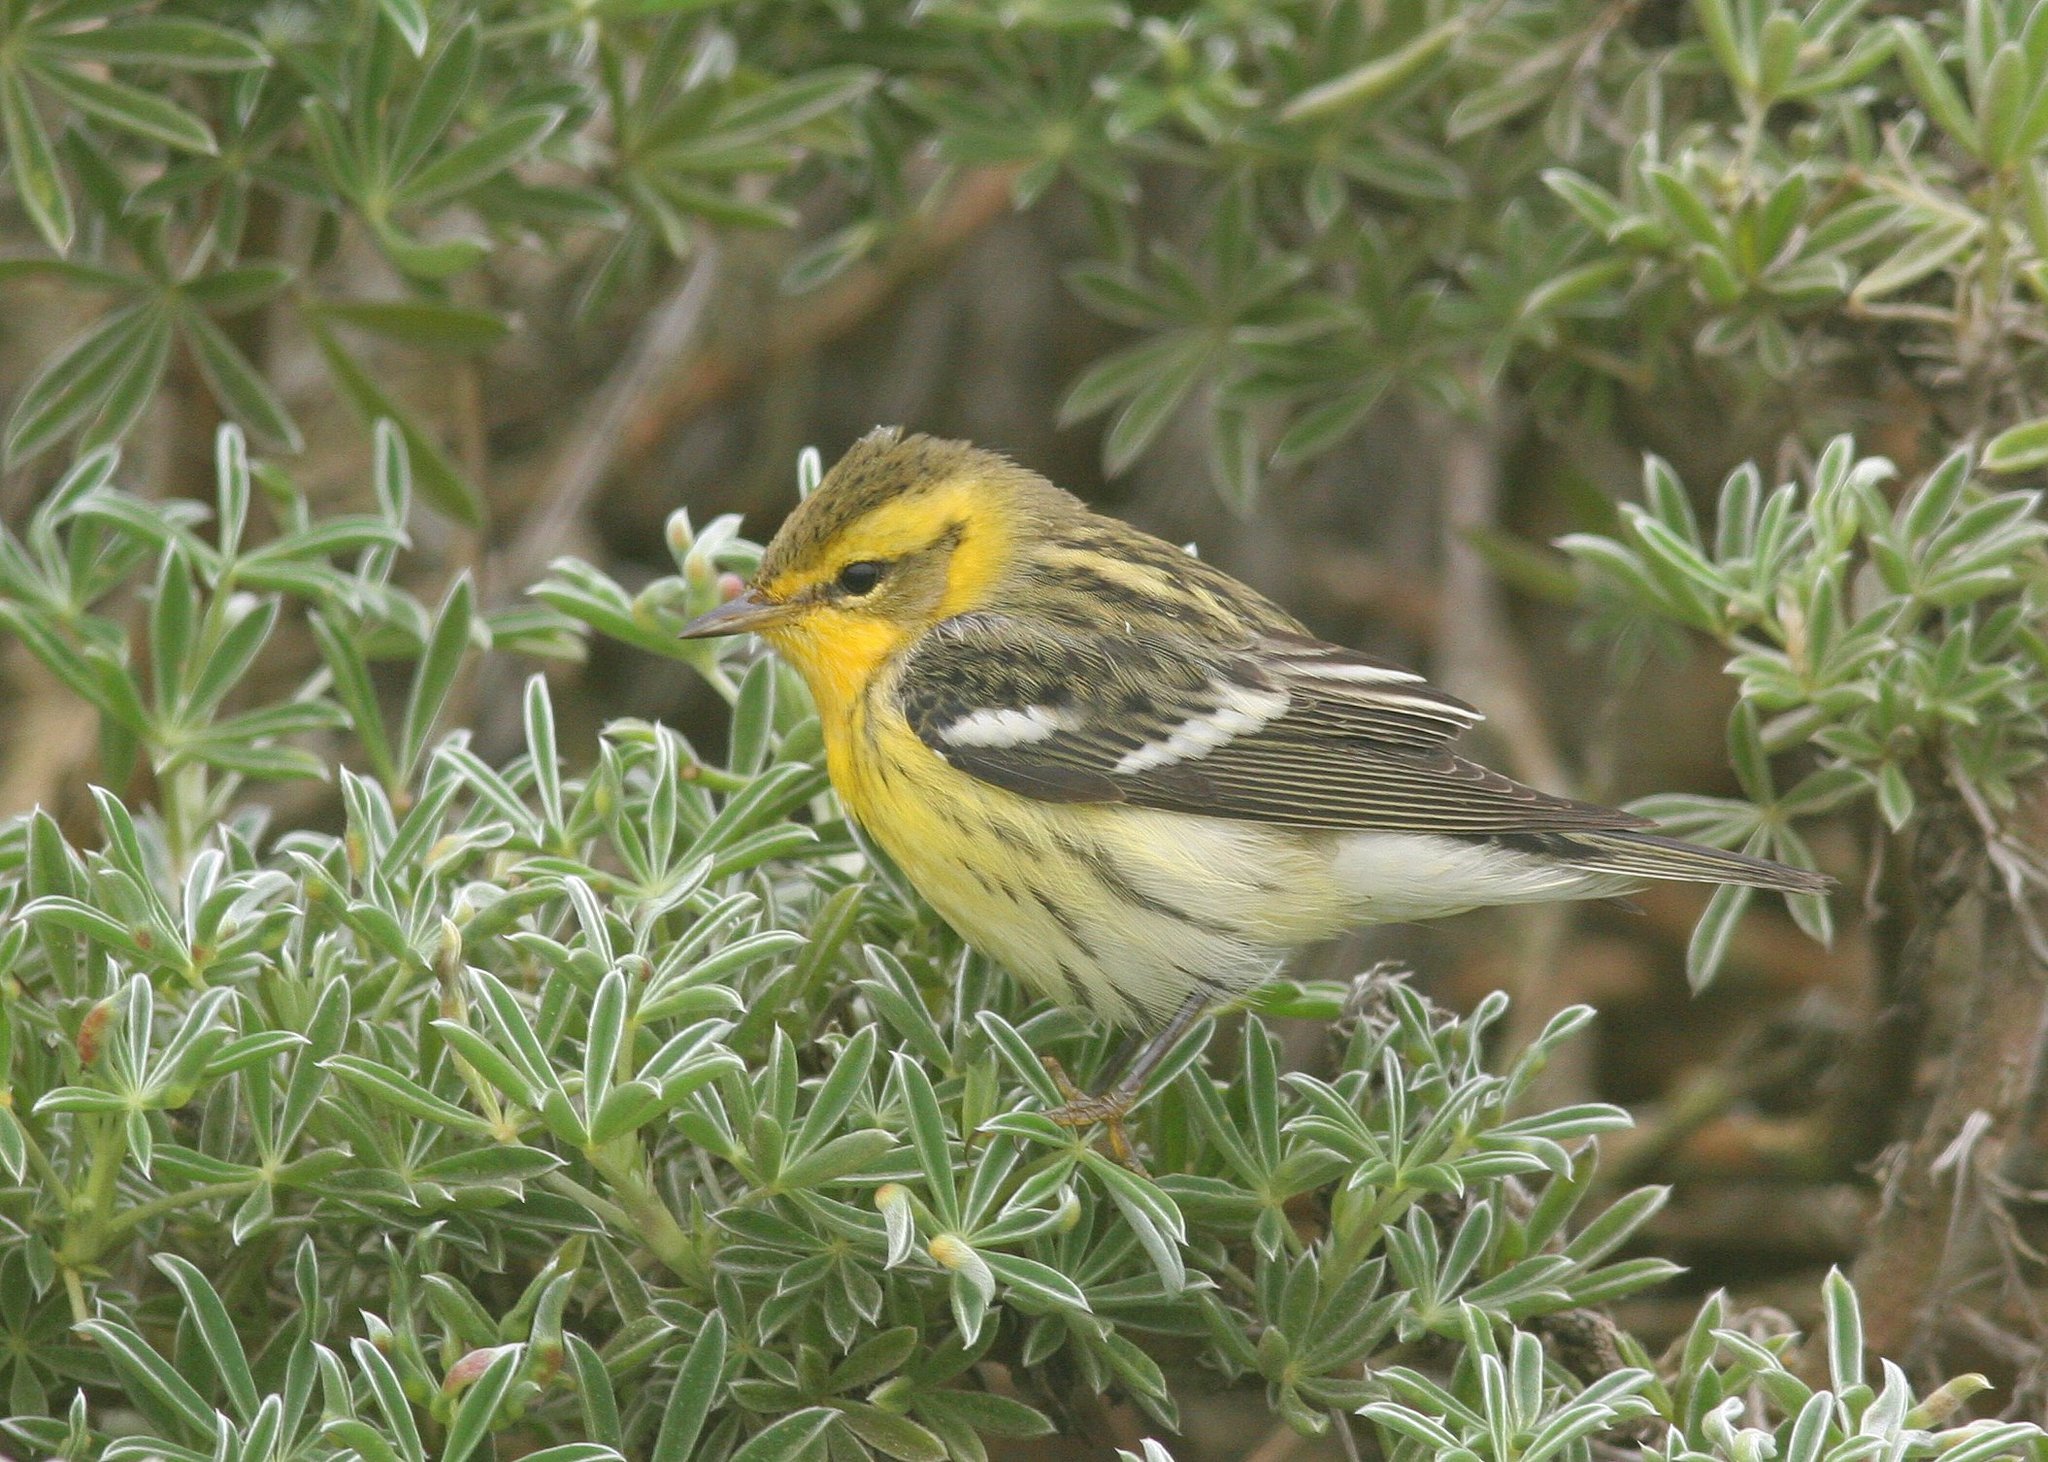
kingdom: Animalia
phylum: Chordata
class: Aves
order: Passeriformes
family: Parulidae
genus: Setophaga
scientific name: Setophaga fusca
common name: Blackburnian warbler
